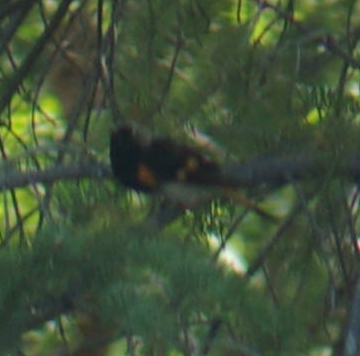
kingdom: Animalia
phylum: Chordata
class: Aves
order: Passeriformes
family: Parulidae
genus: Setophaga
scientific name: Setophaga ruticilla
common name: American redstart
